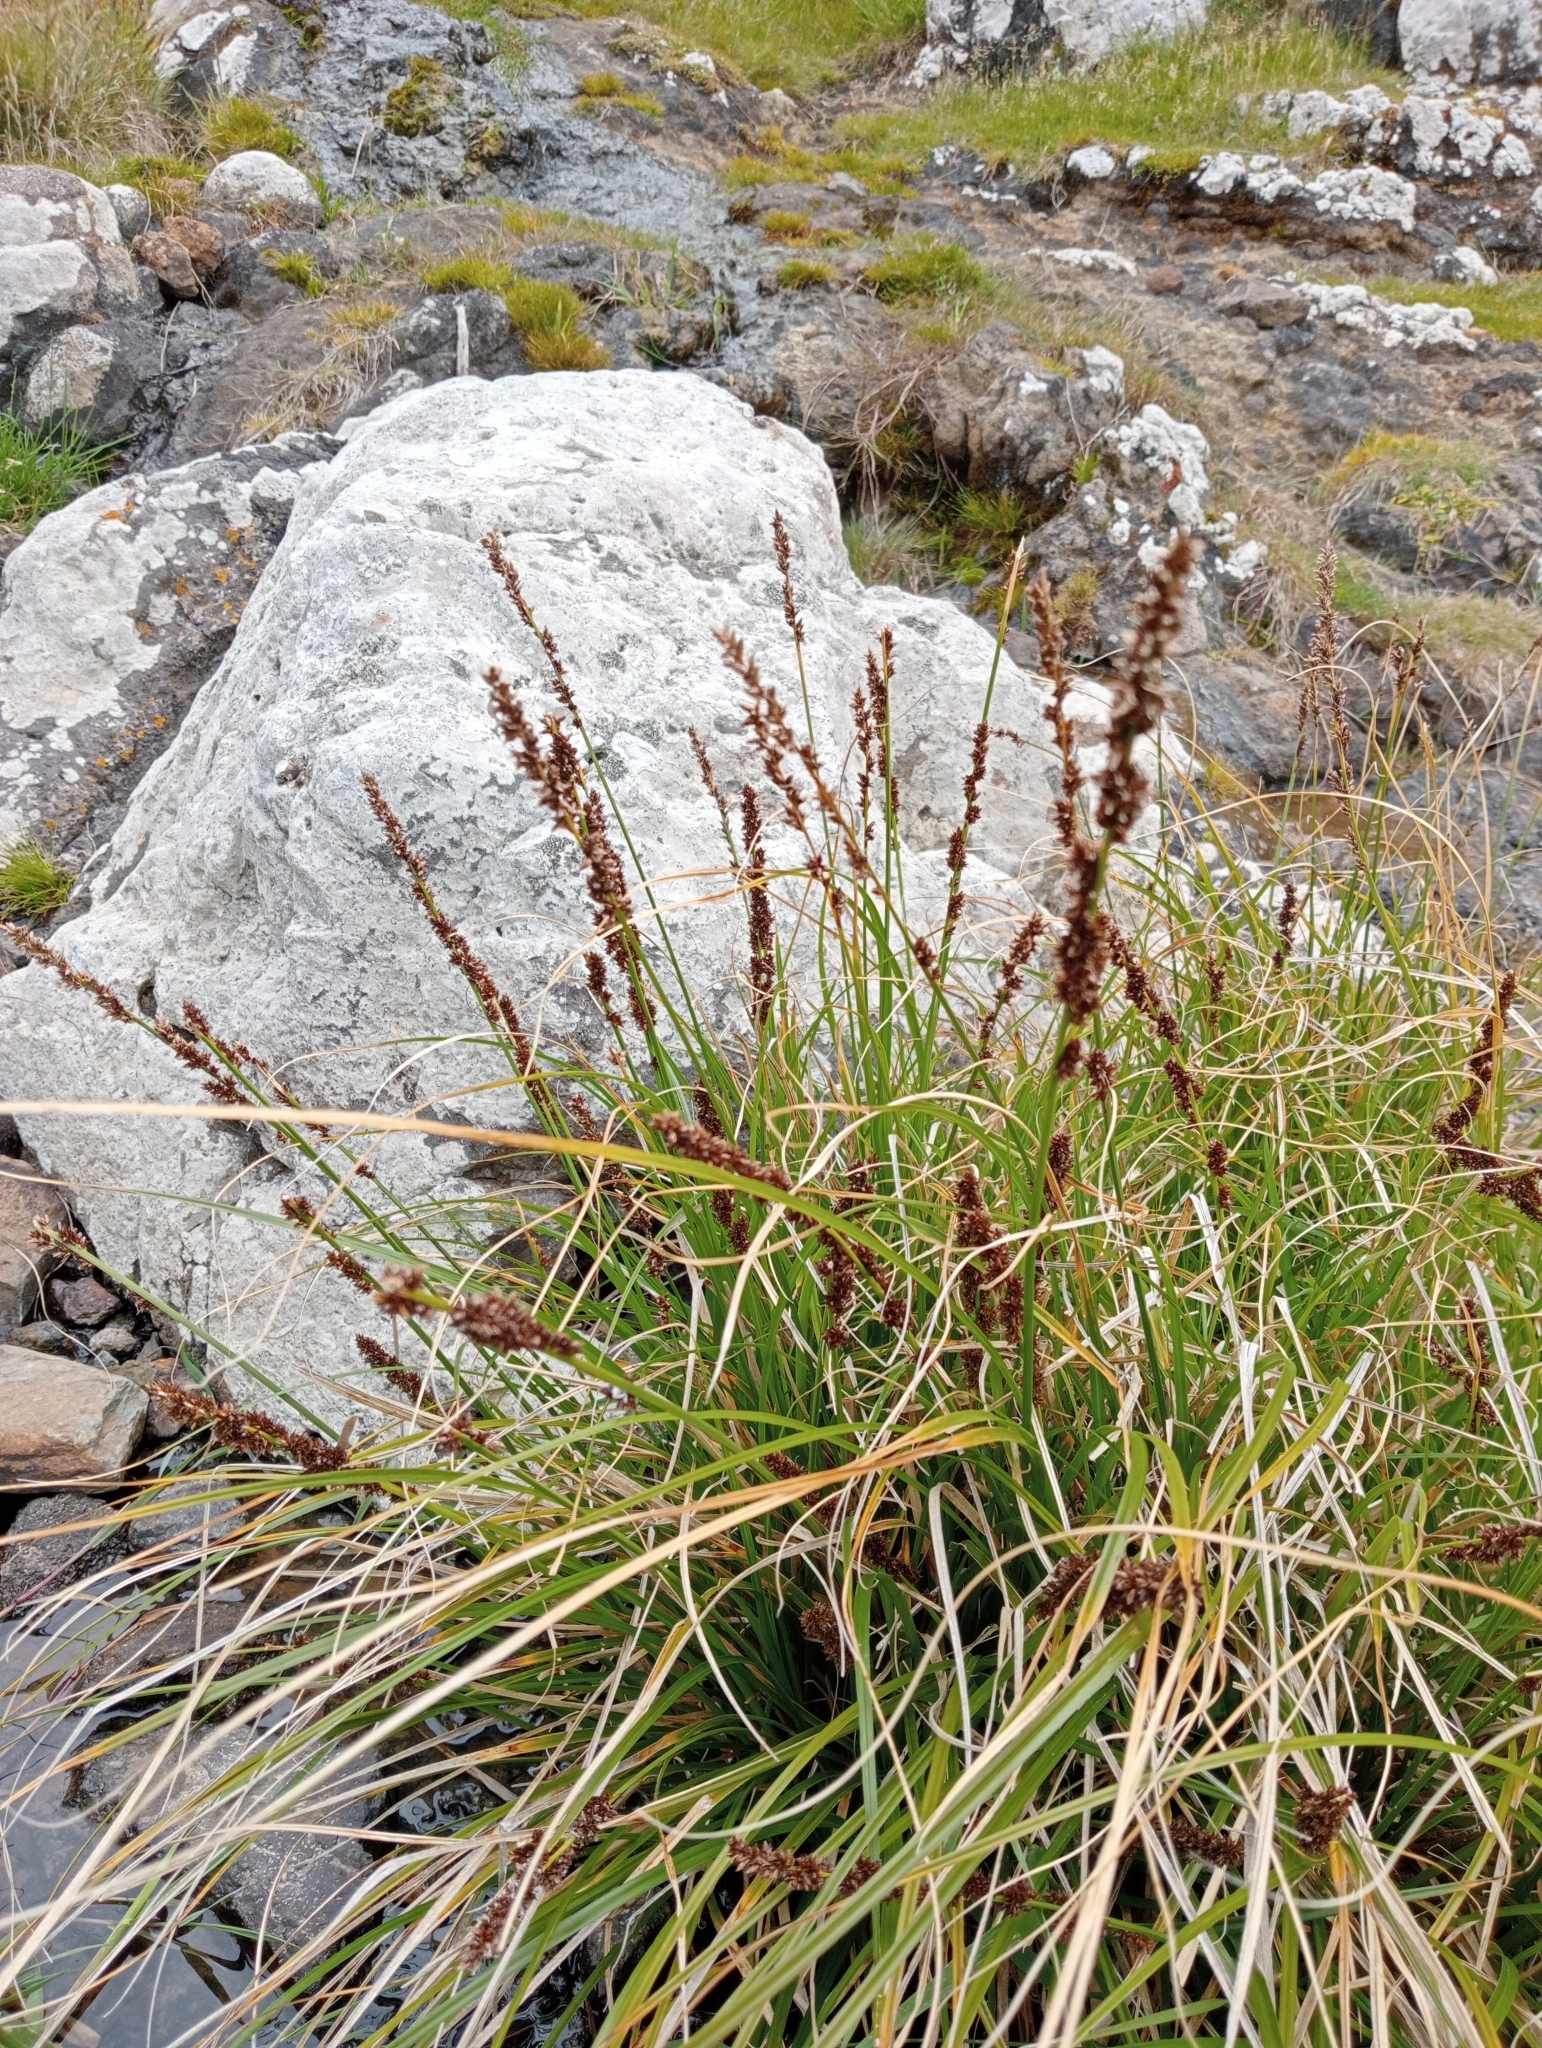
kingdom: Plantae
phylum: Tracheophyta
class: Liliopsida
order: Poales
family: Cyperaceae
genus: Carex
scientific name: Carex appressa
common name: Tussock sedge
